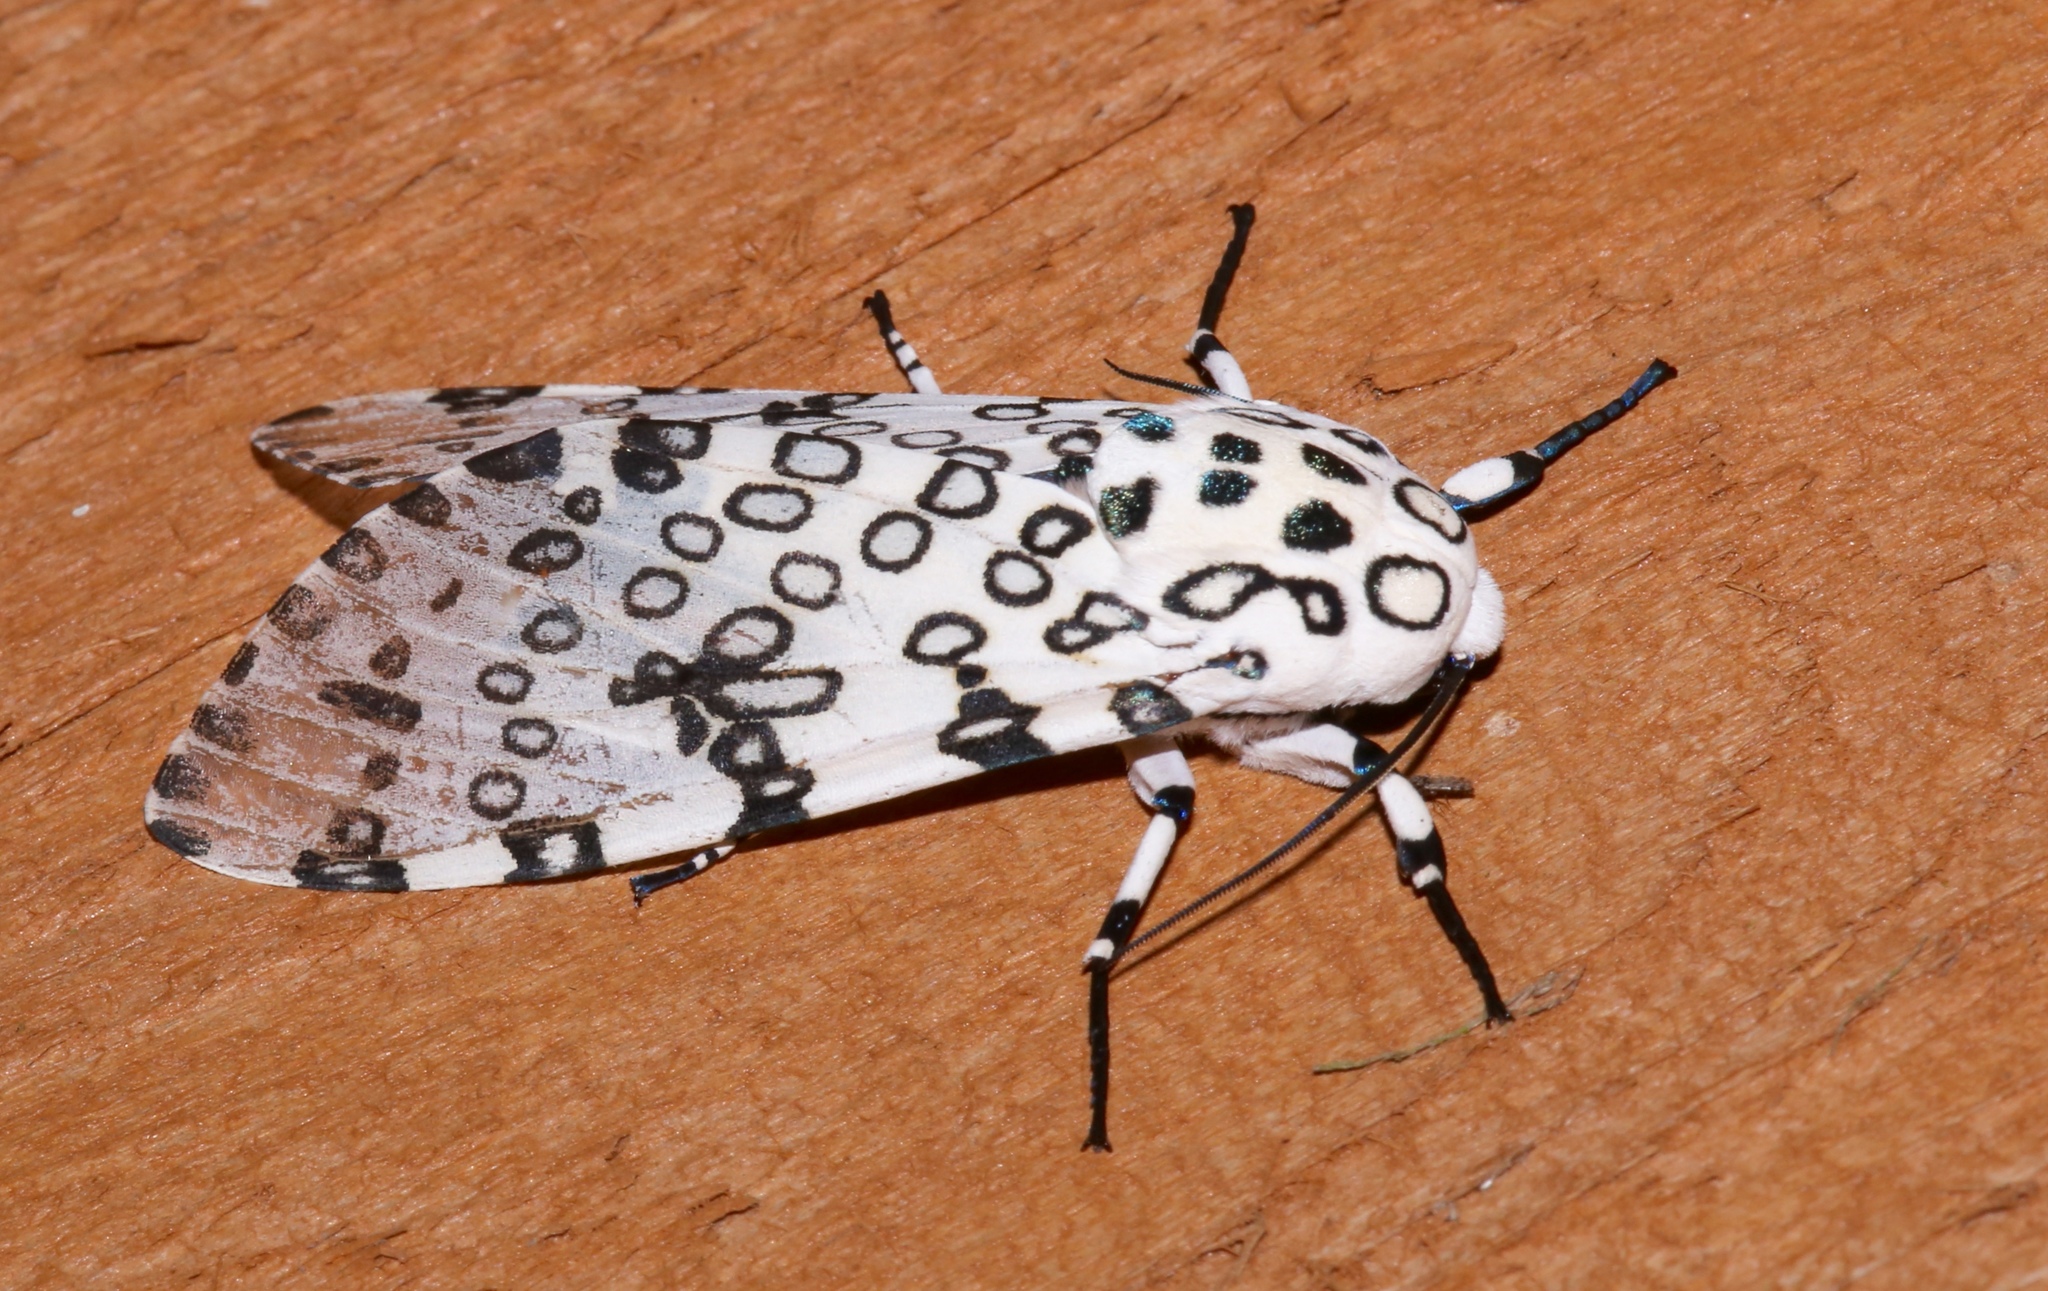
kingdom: Animalia
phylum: Arthropoda
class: Insecta
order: Lepidoptera
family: Erebidae
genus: Hypercompe
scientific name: Hypercompe scribonia
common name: Giant leopard moth
